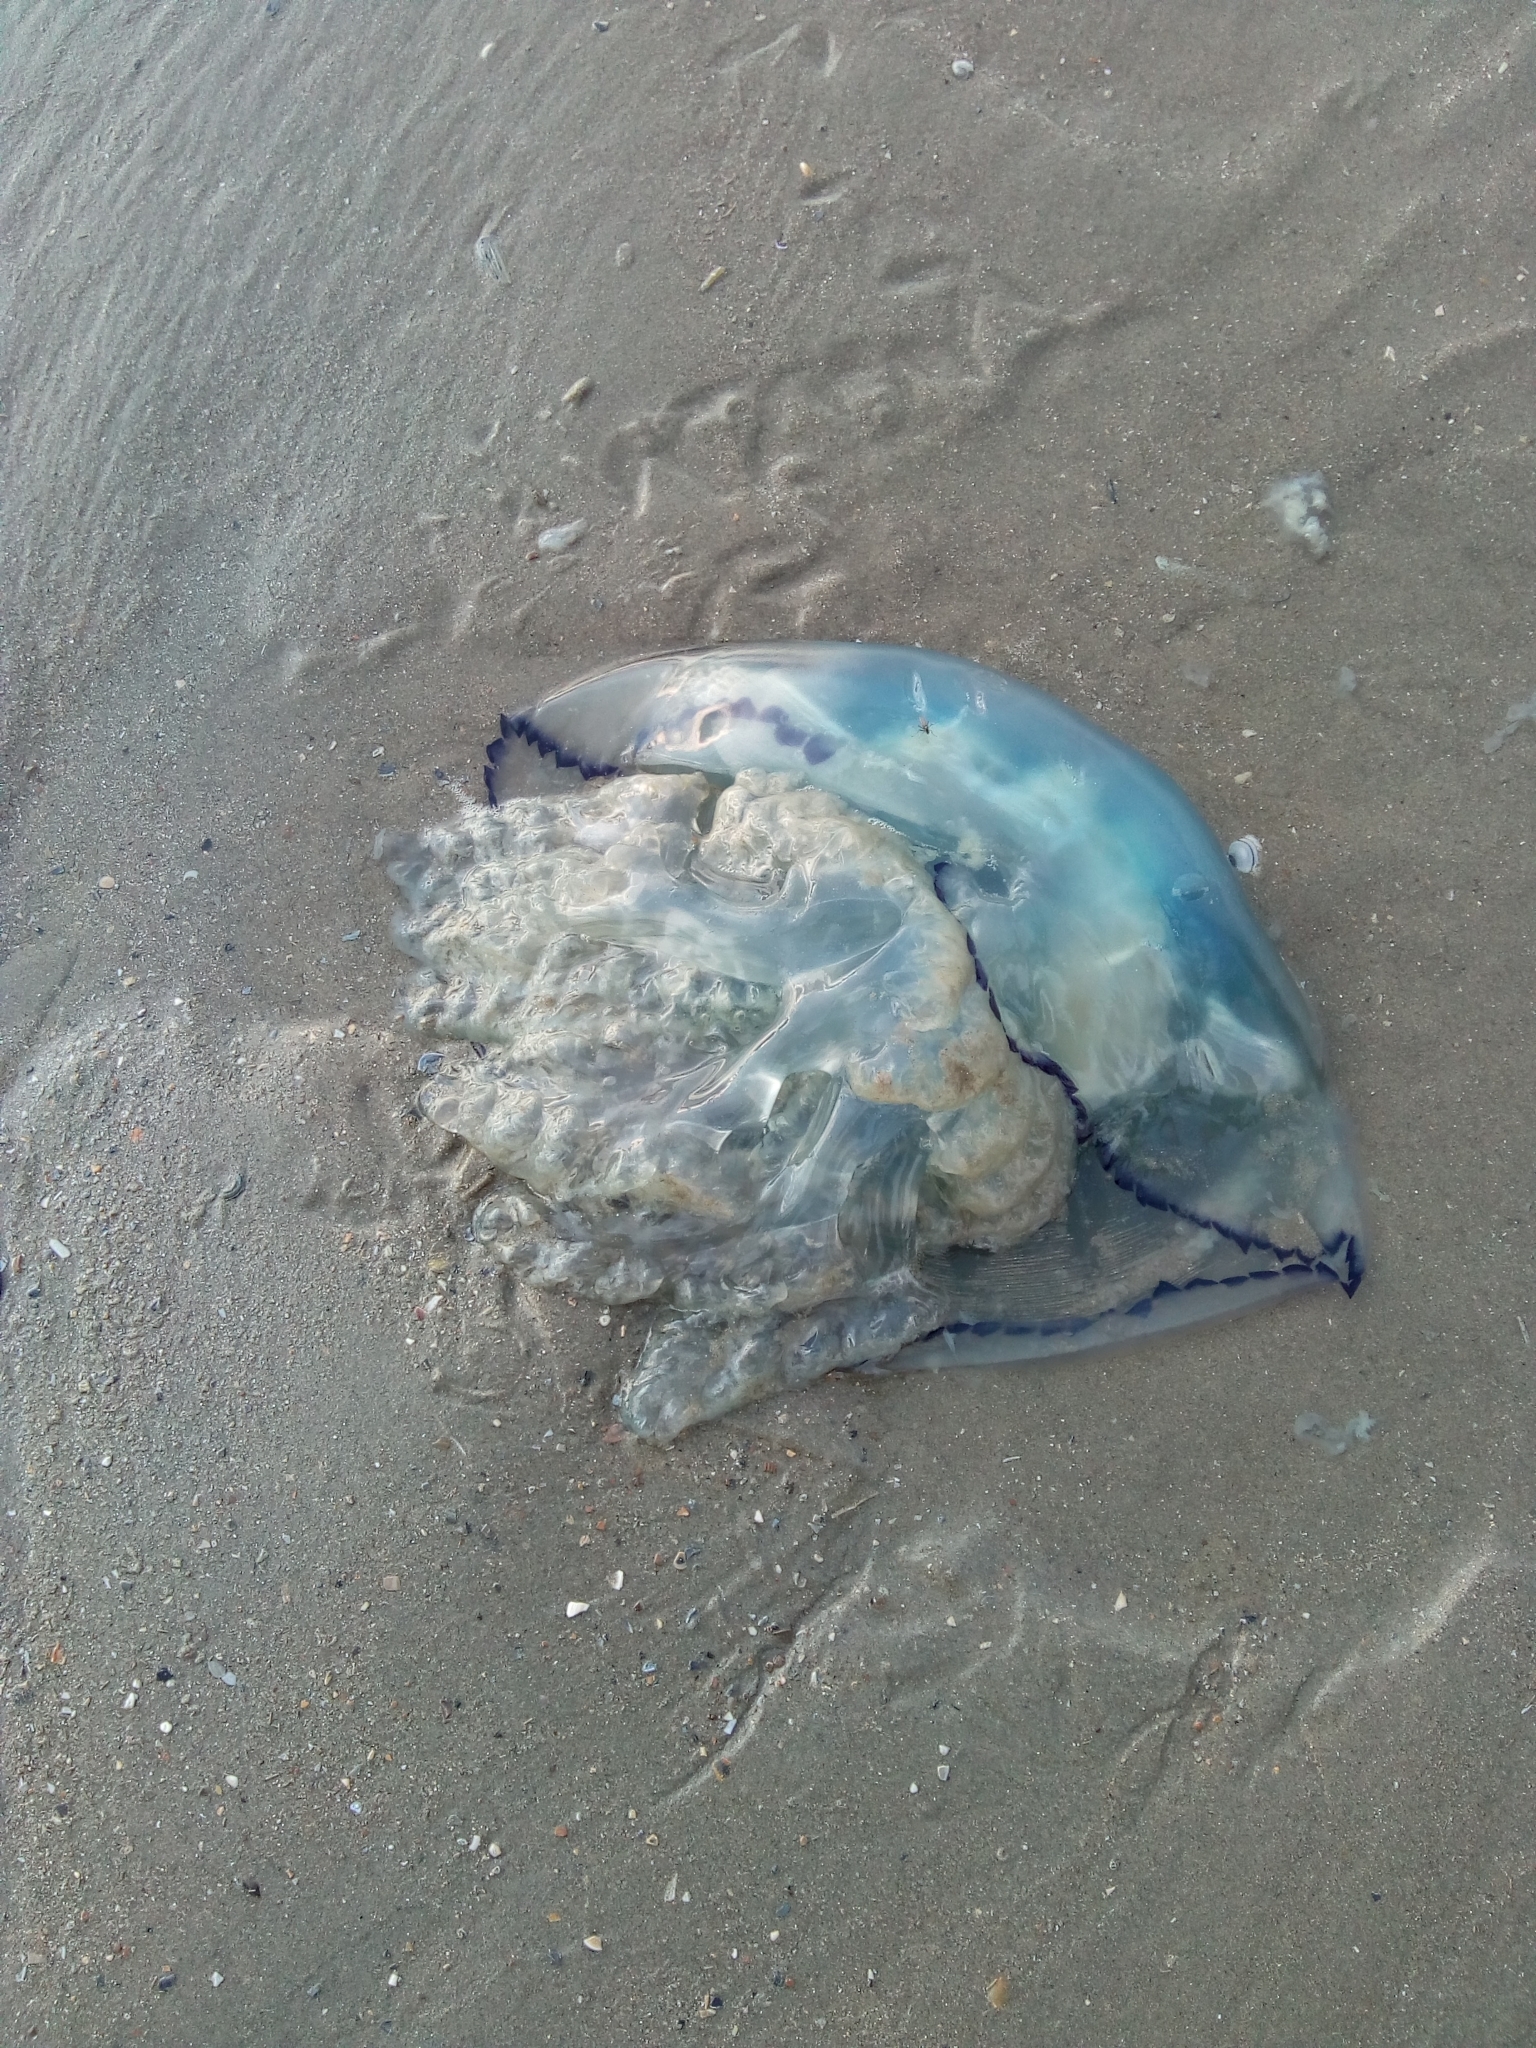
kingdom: Animalia
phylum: Cnidaria
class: Scyphozoa
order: Rhizostomeae
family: Rhizostomatidae
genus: Rhizostoma
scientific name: Rhizostoma octopus
